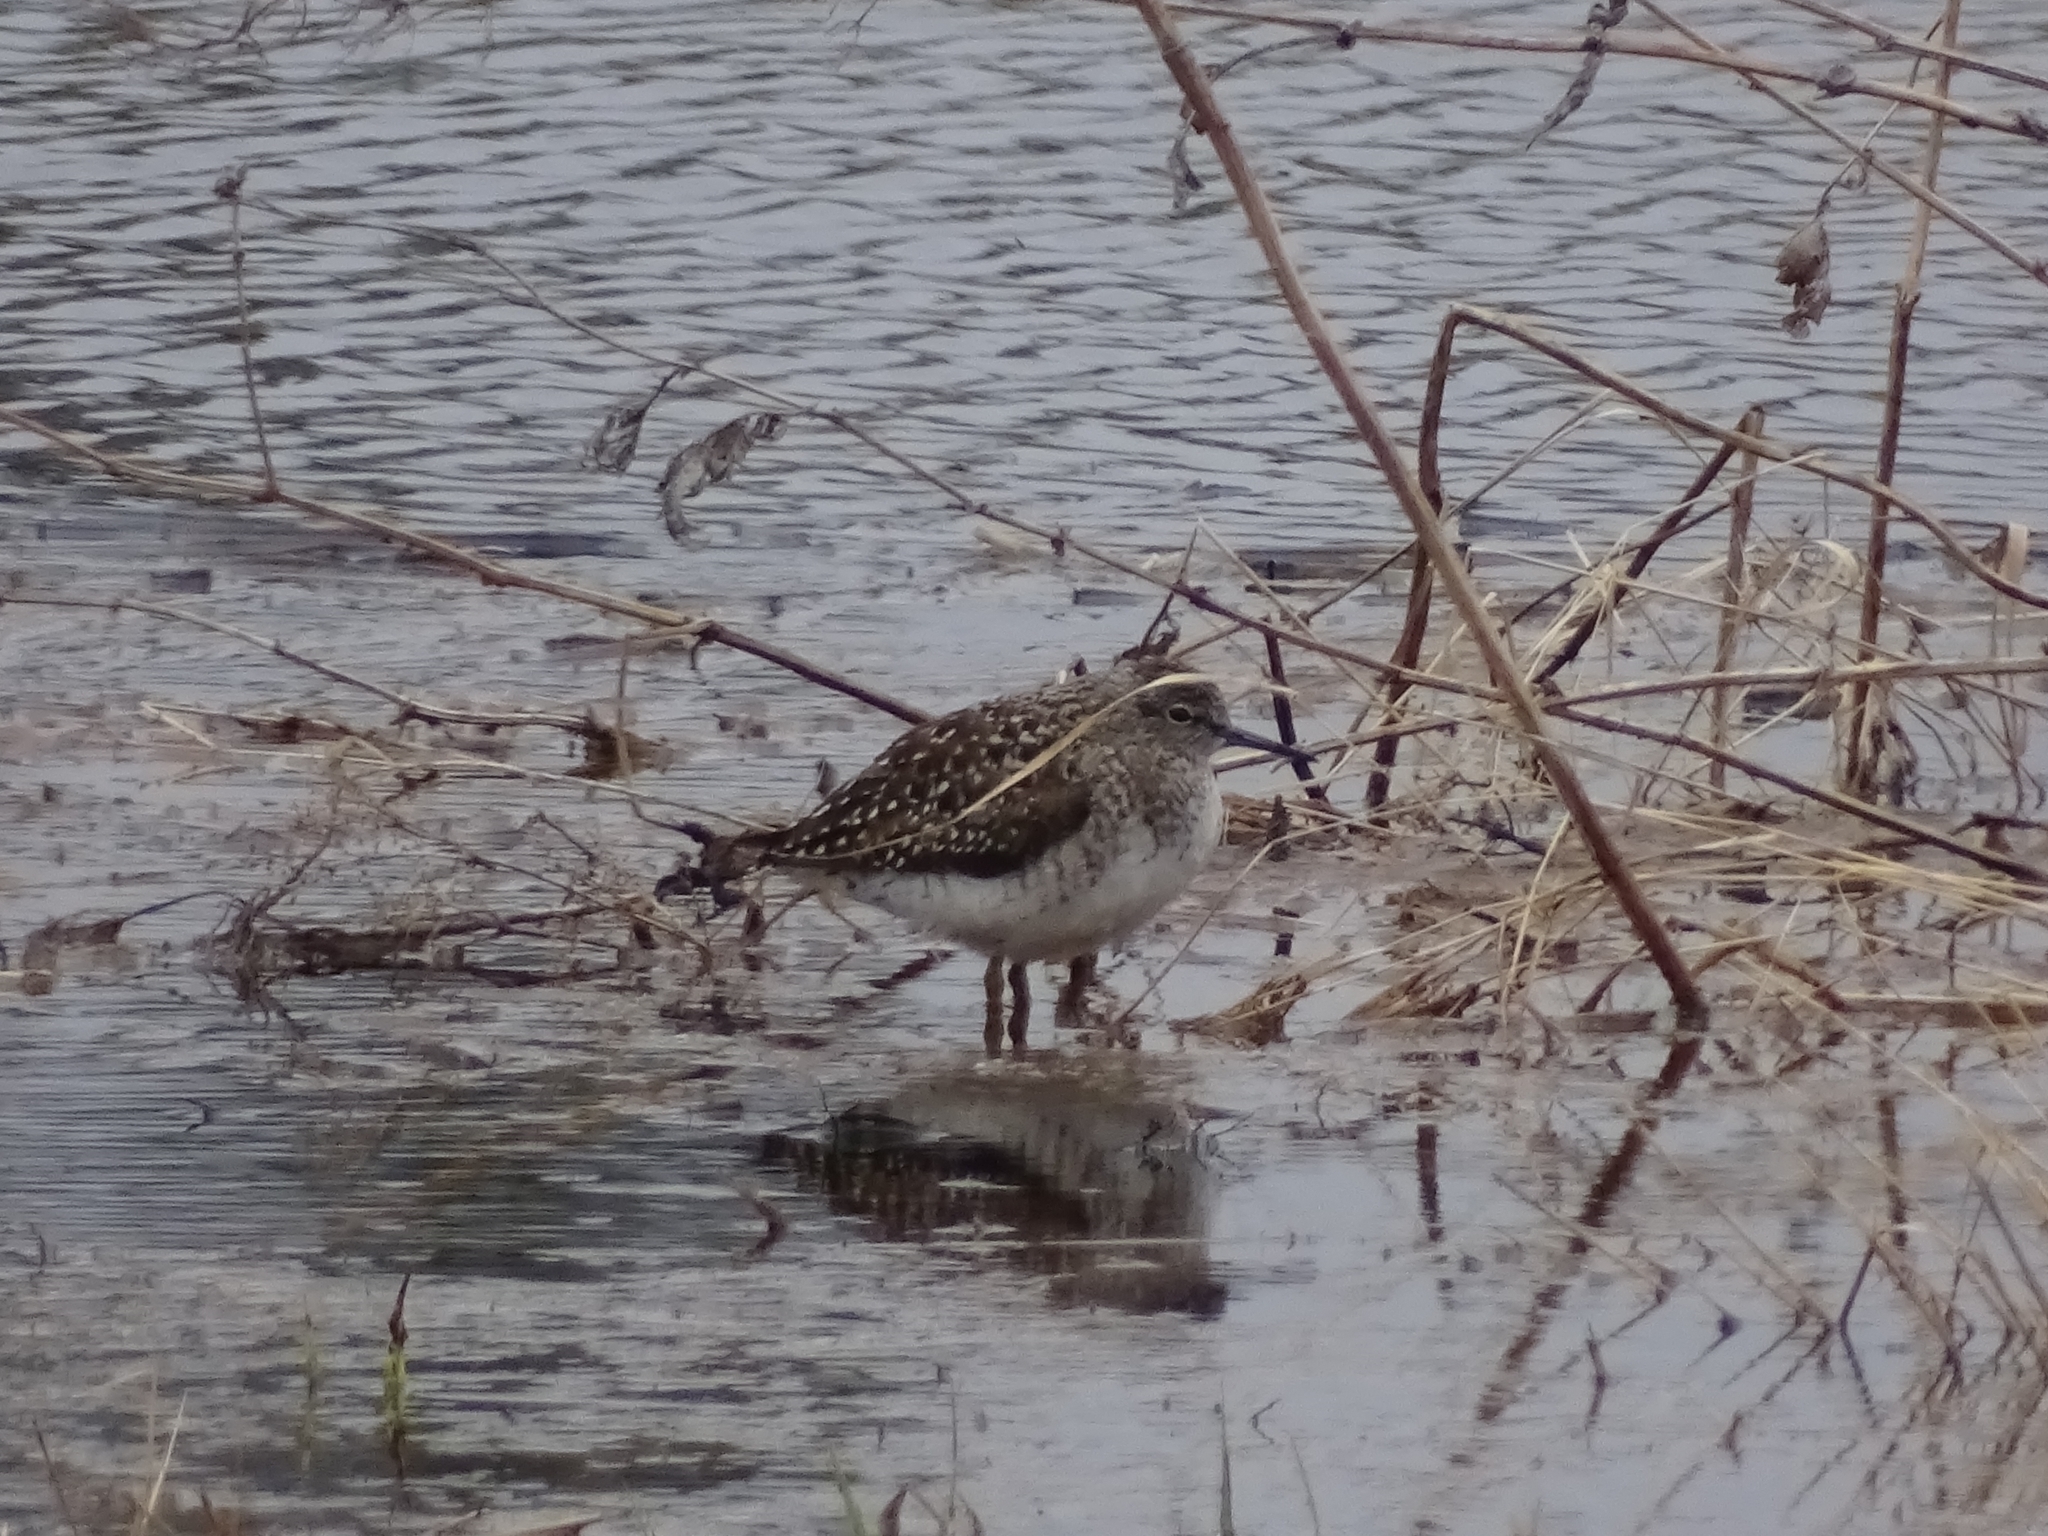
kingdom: Animalia
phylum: Chordata
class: Aves
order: Charadriiformes
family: Scolopacidae
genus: Tringa
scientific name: Tringa glareola
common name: Wood sandpiper
